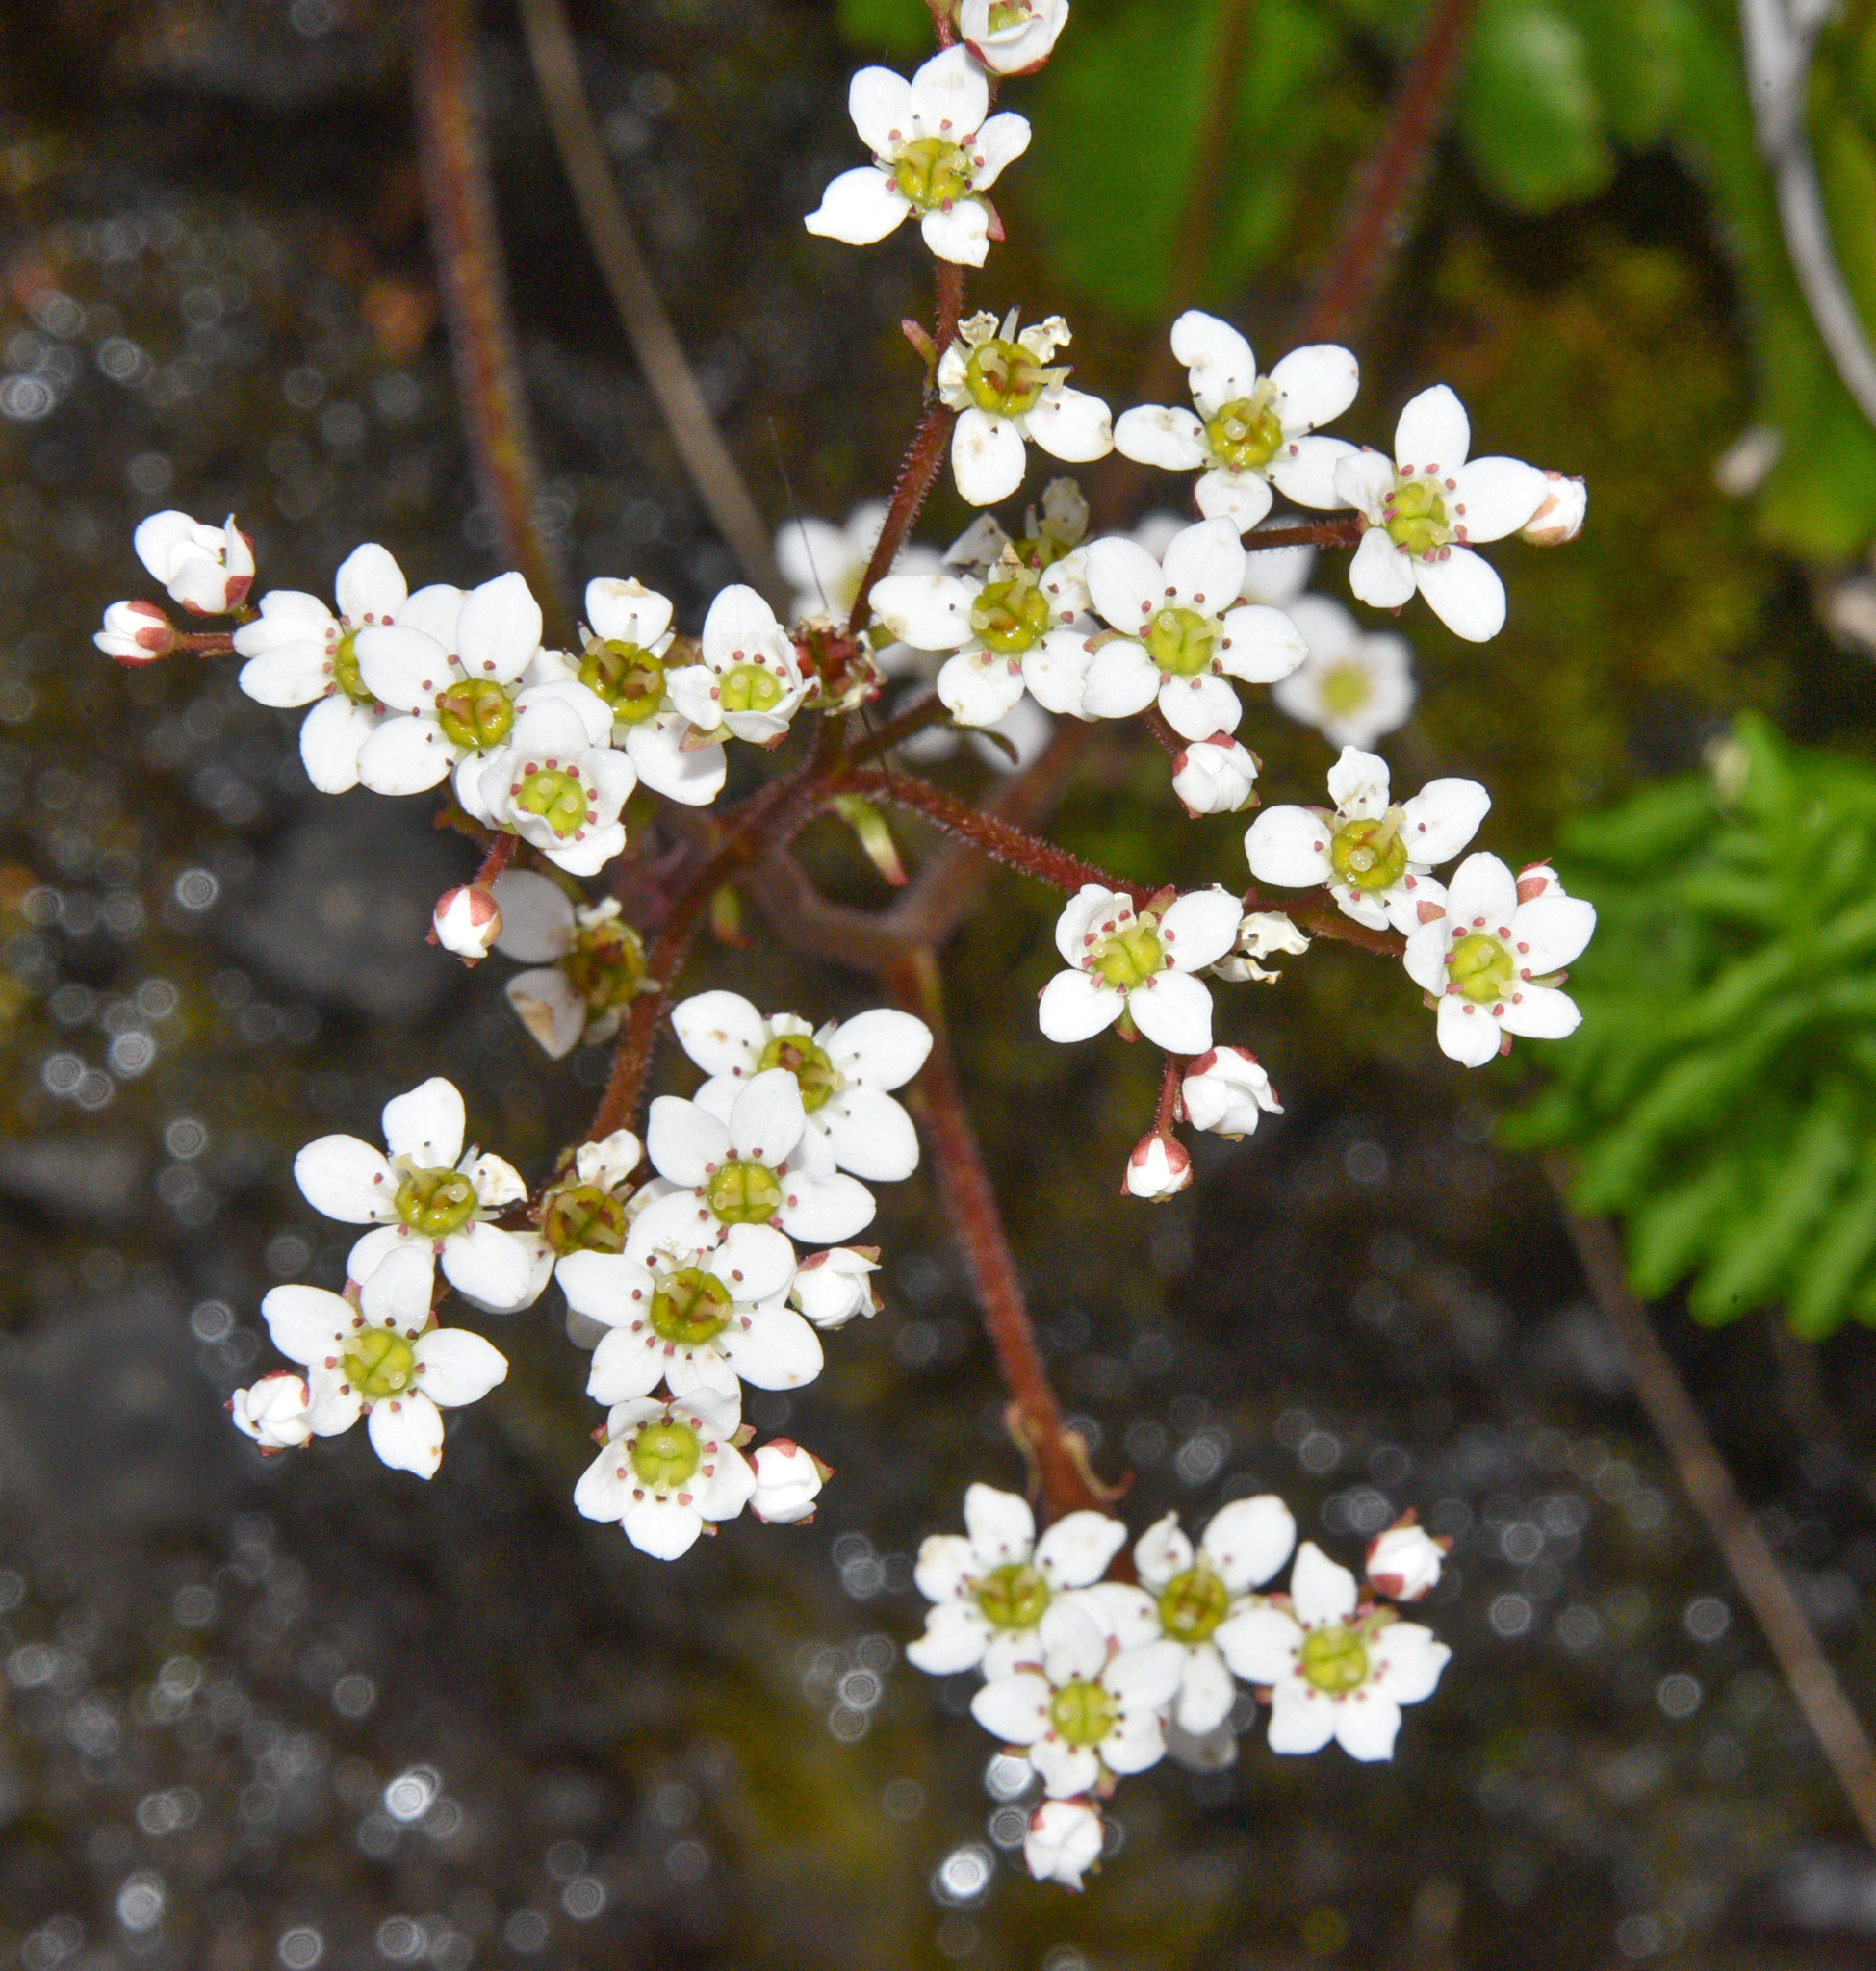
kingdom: Plantae
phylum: Tracheophyta
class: Magnoliopsida
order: Saxifragales
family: Saxifragaceae
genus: Micranthes
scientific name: Micranthes californica
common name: California saxifrage
